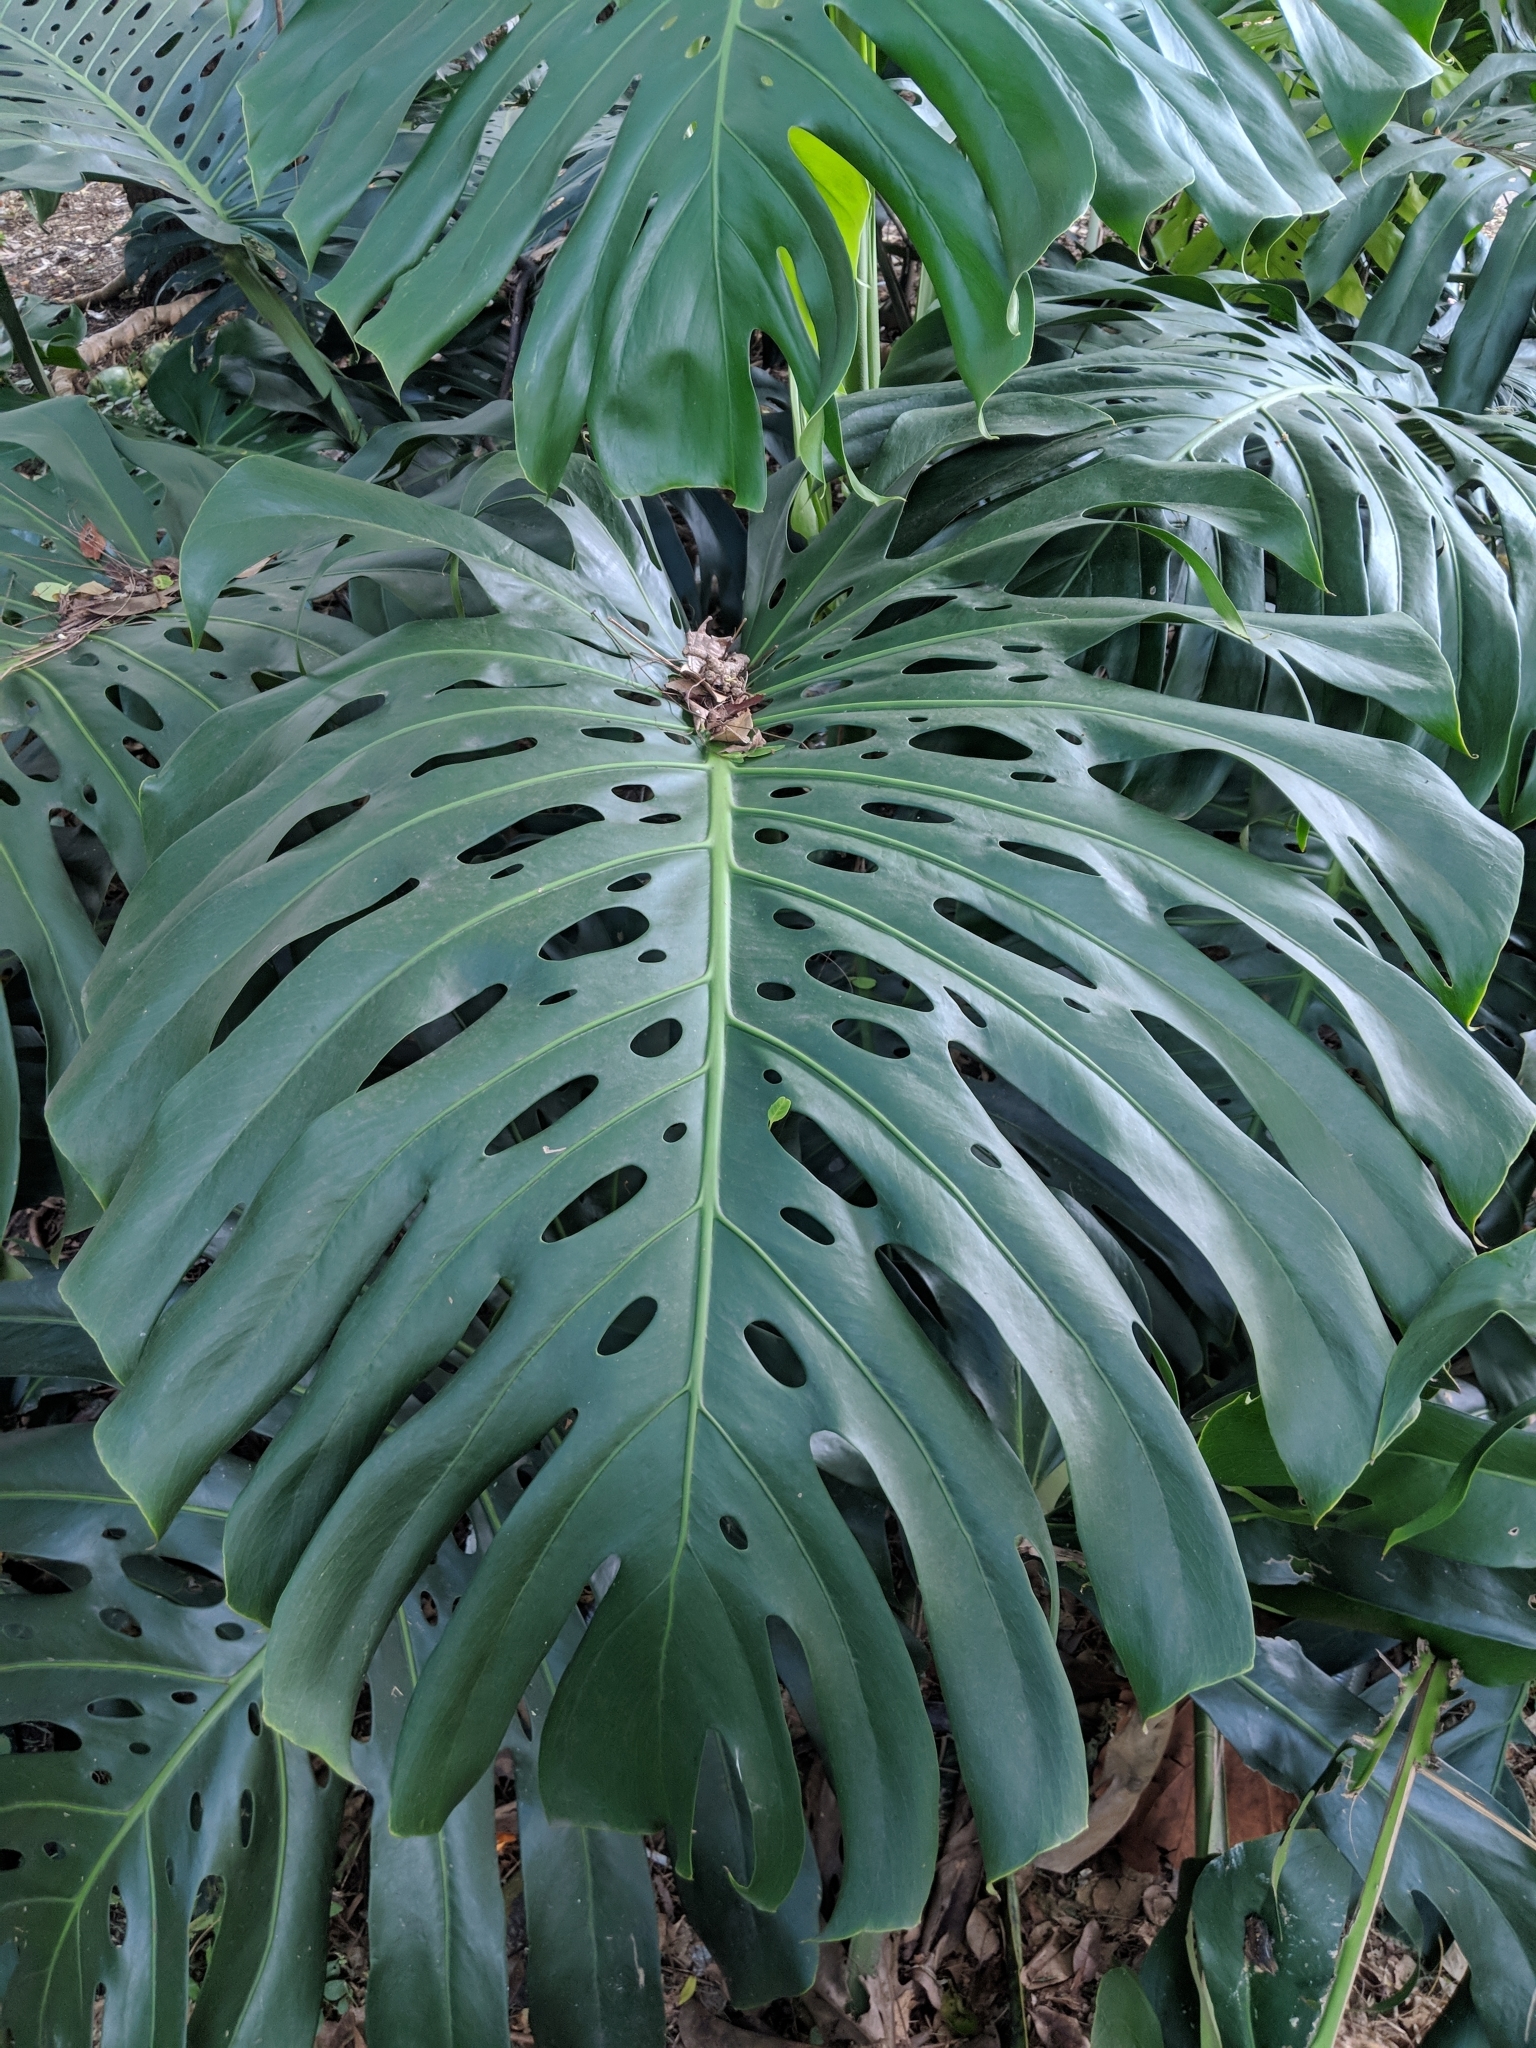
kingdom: Plantae
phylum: Tracheophyta
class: Liliopsida
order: Alismatales
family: Araceae
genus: Monstera
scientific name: Monstera deliciosa
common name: Cut-leaf-philodendron
